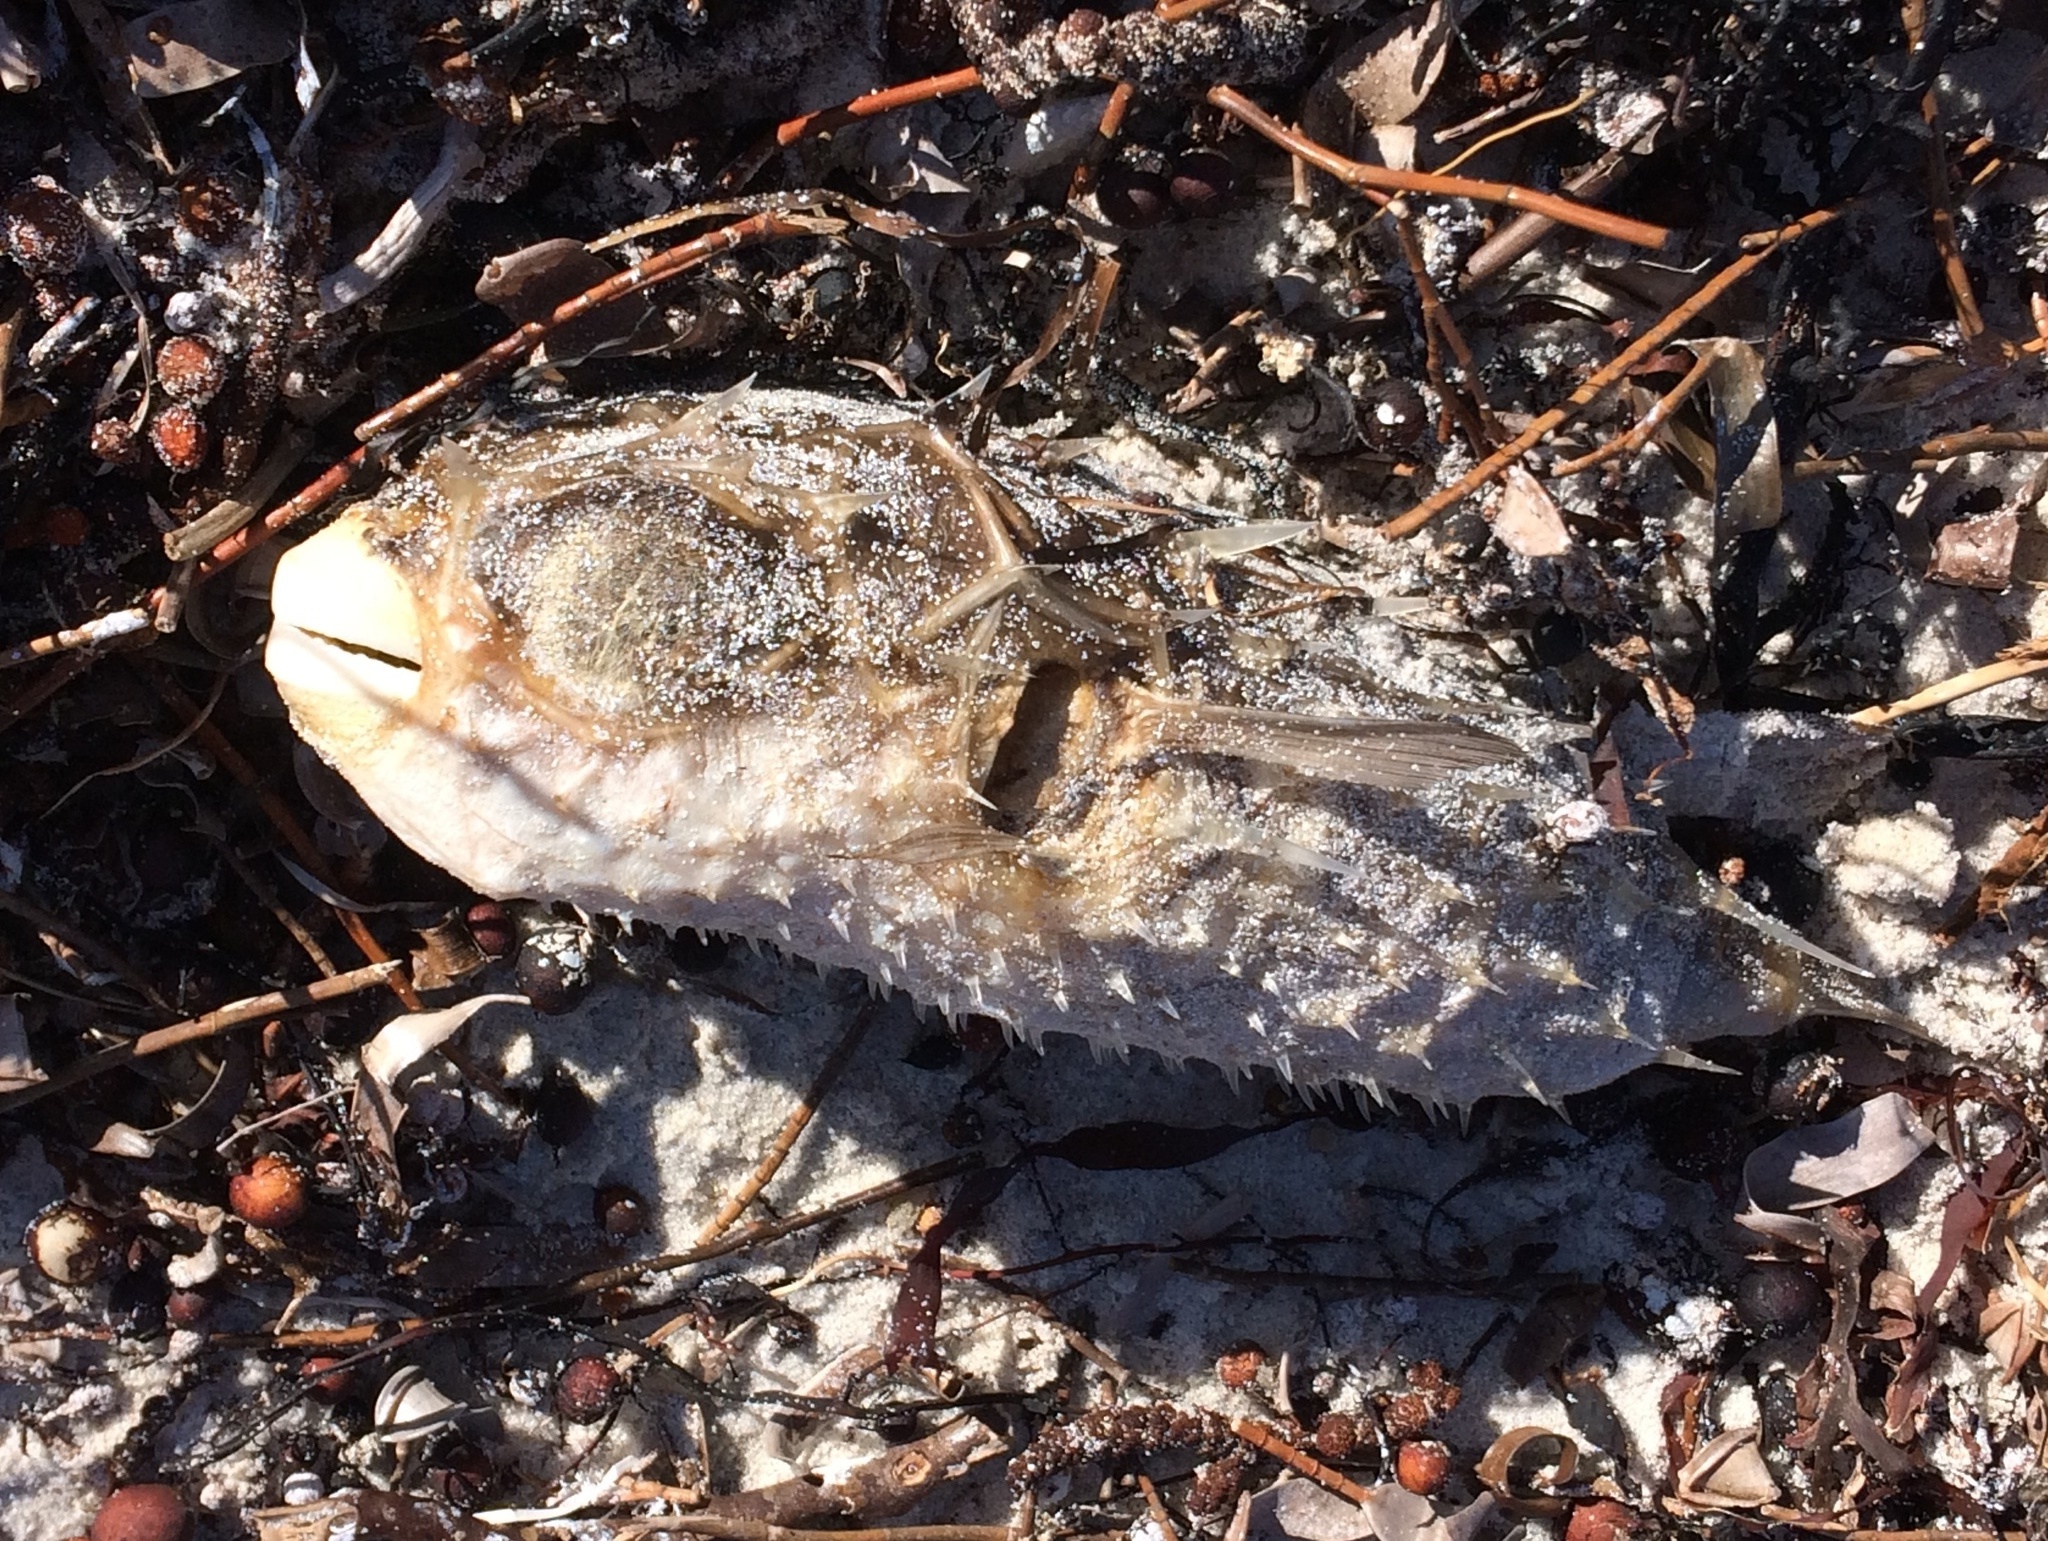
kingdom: Animalia
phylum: Chordata
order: Tetraodontiformes
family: Diodontidae
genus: Allomycterus
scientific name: Allomycterus pilatus
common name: No common name
